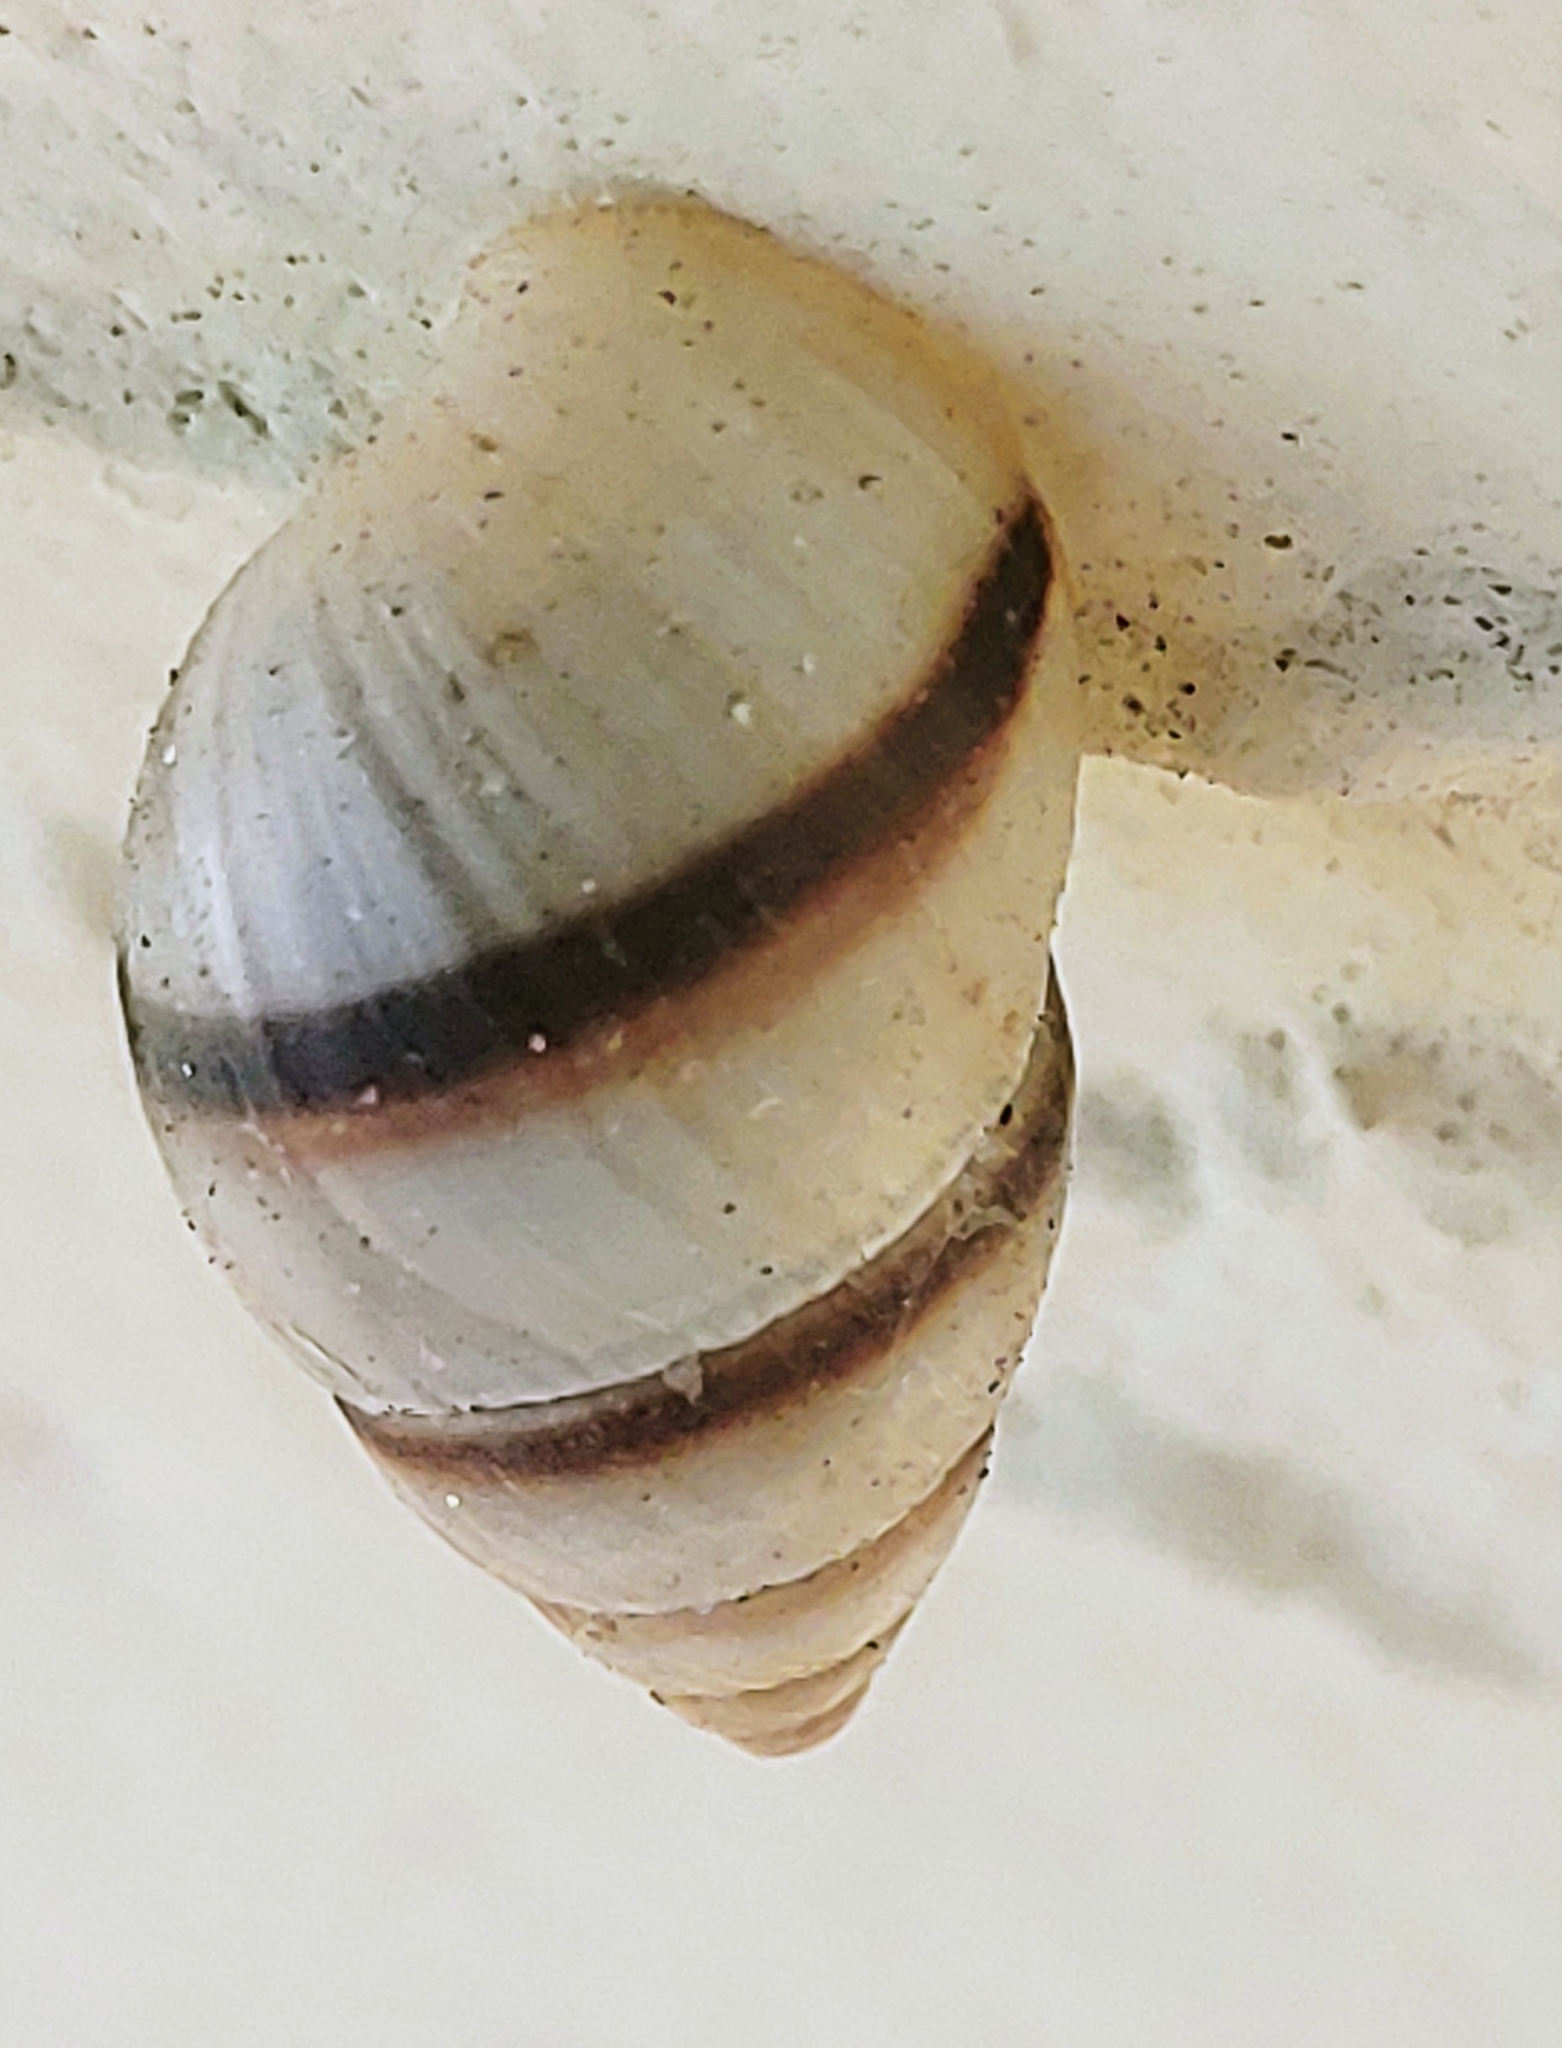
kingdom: Animalia
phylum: Mollusca
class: Gastropoda
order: Stylommatophora
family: Bulimulidae
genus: Bulimulus
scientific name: Bulimulus guadalupensis
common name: West indian bulimulus
